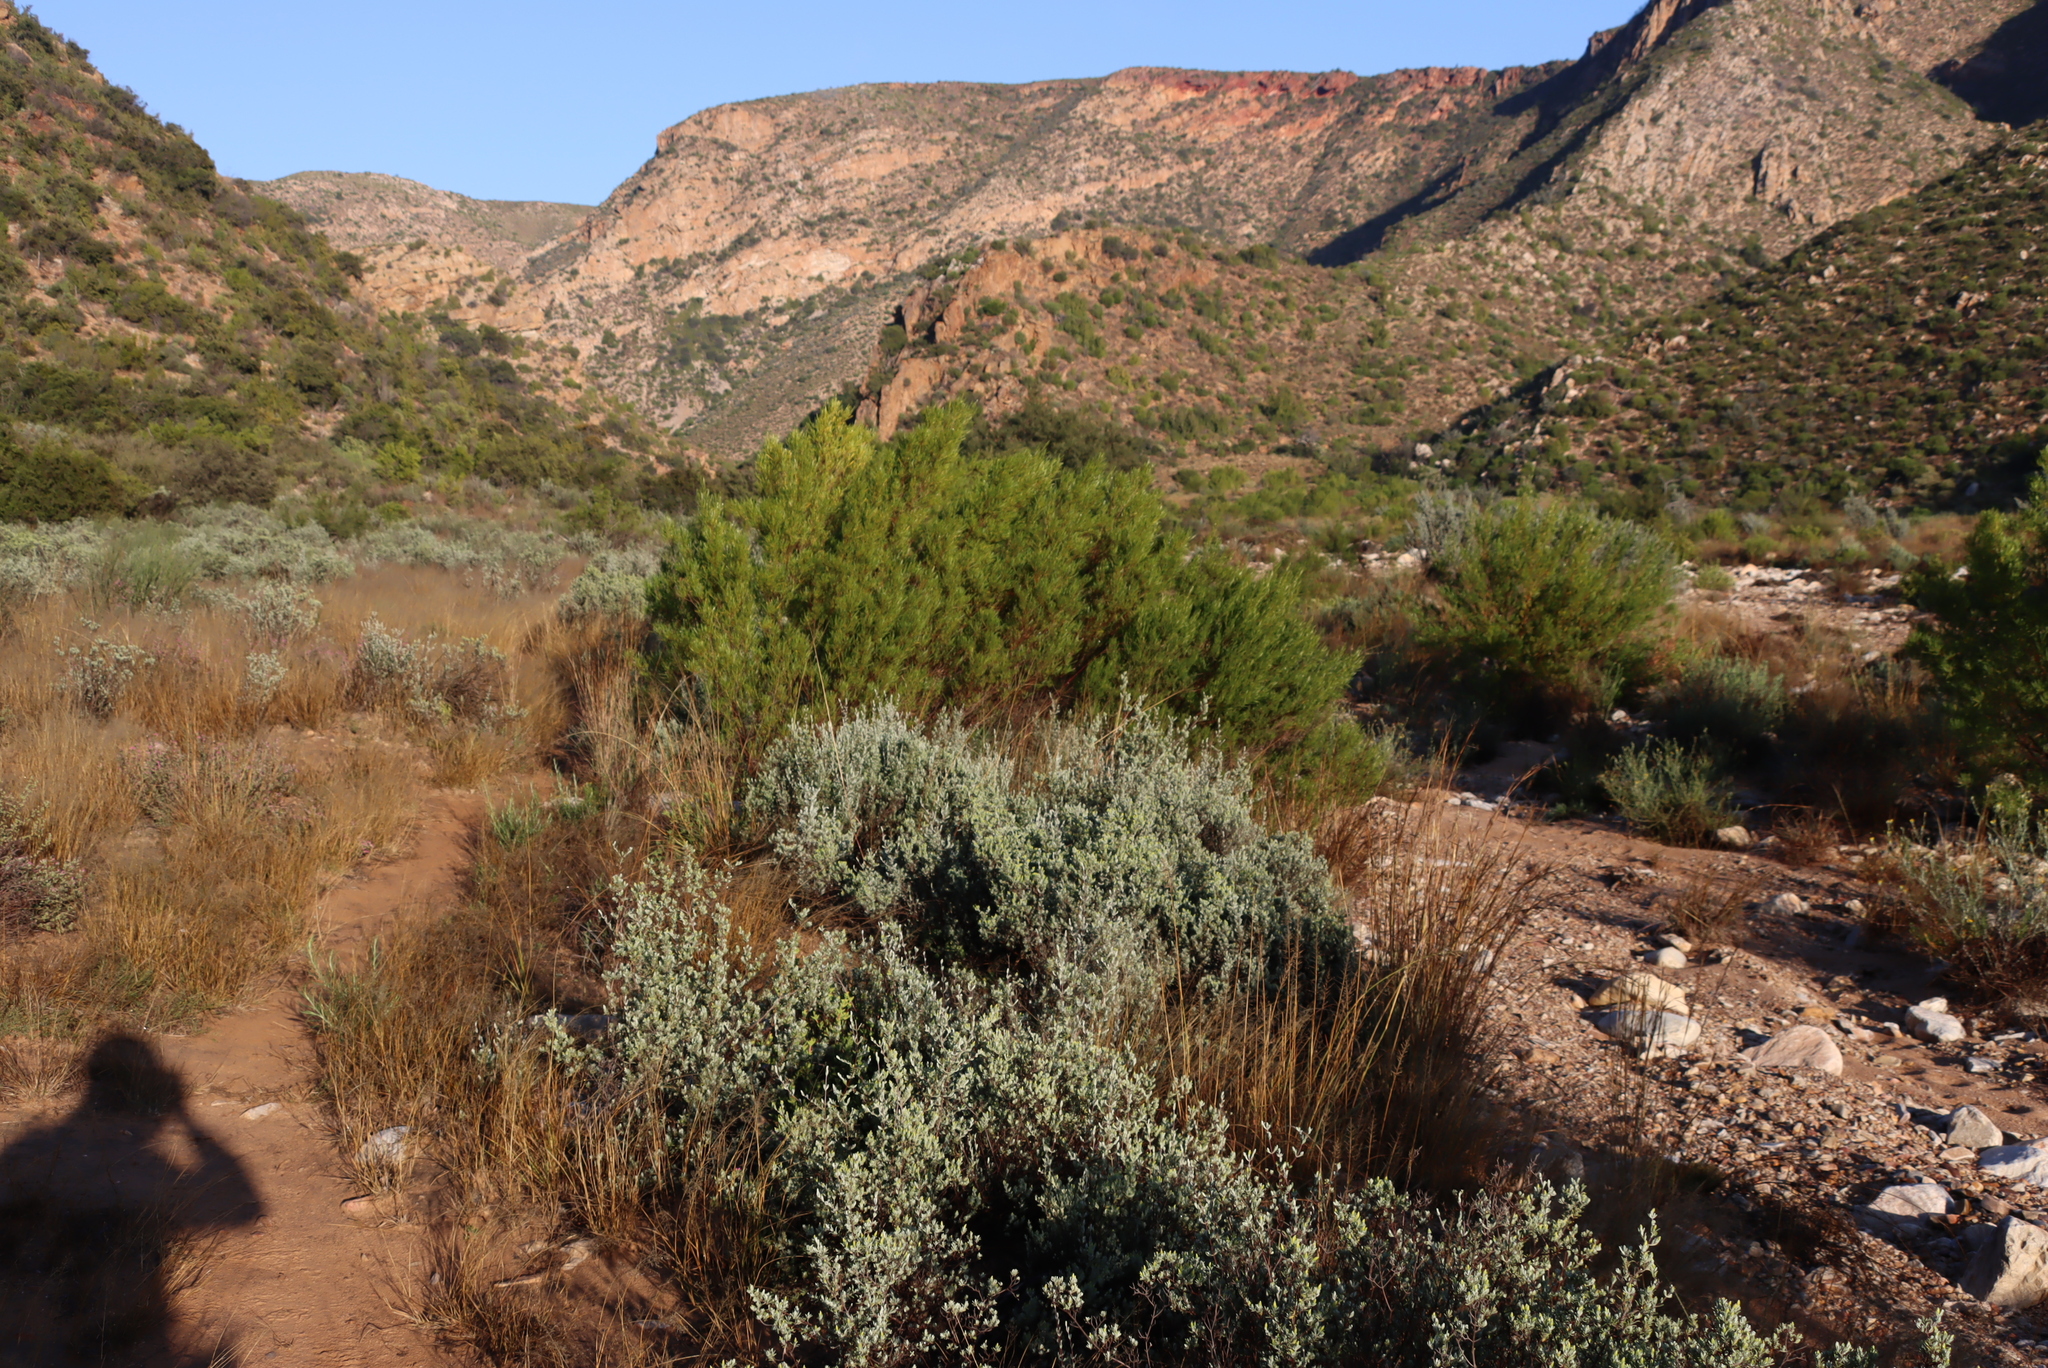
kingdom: Plantae
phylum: Tracheophyta
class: Magnoliopsida
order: Sapindales
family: Sapindaceae
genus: Dodonaea
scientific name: Dodonaea viscosa
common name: Hopbush
